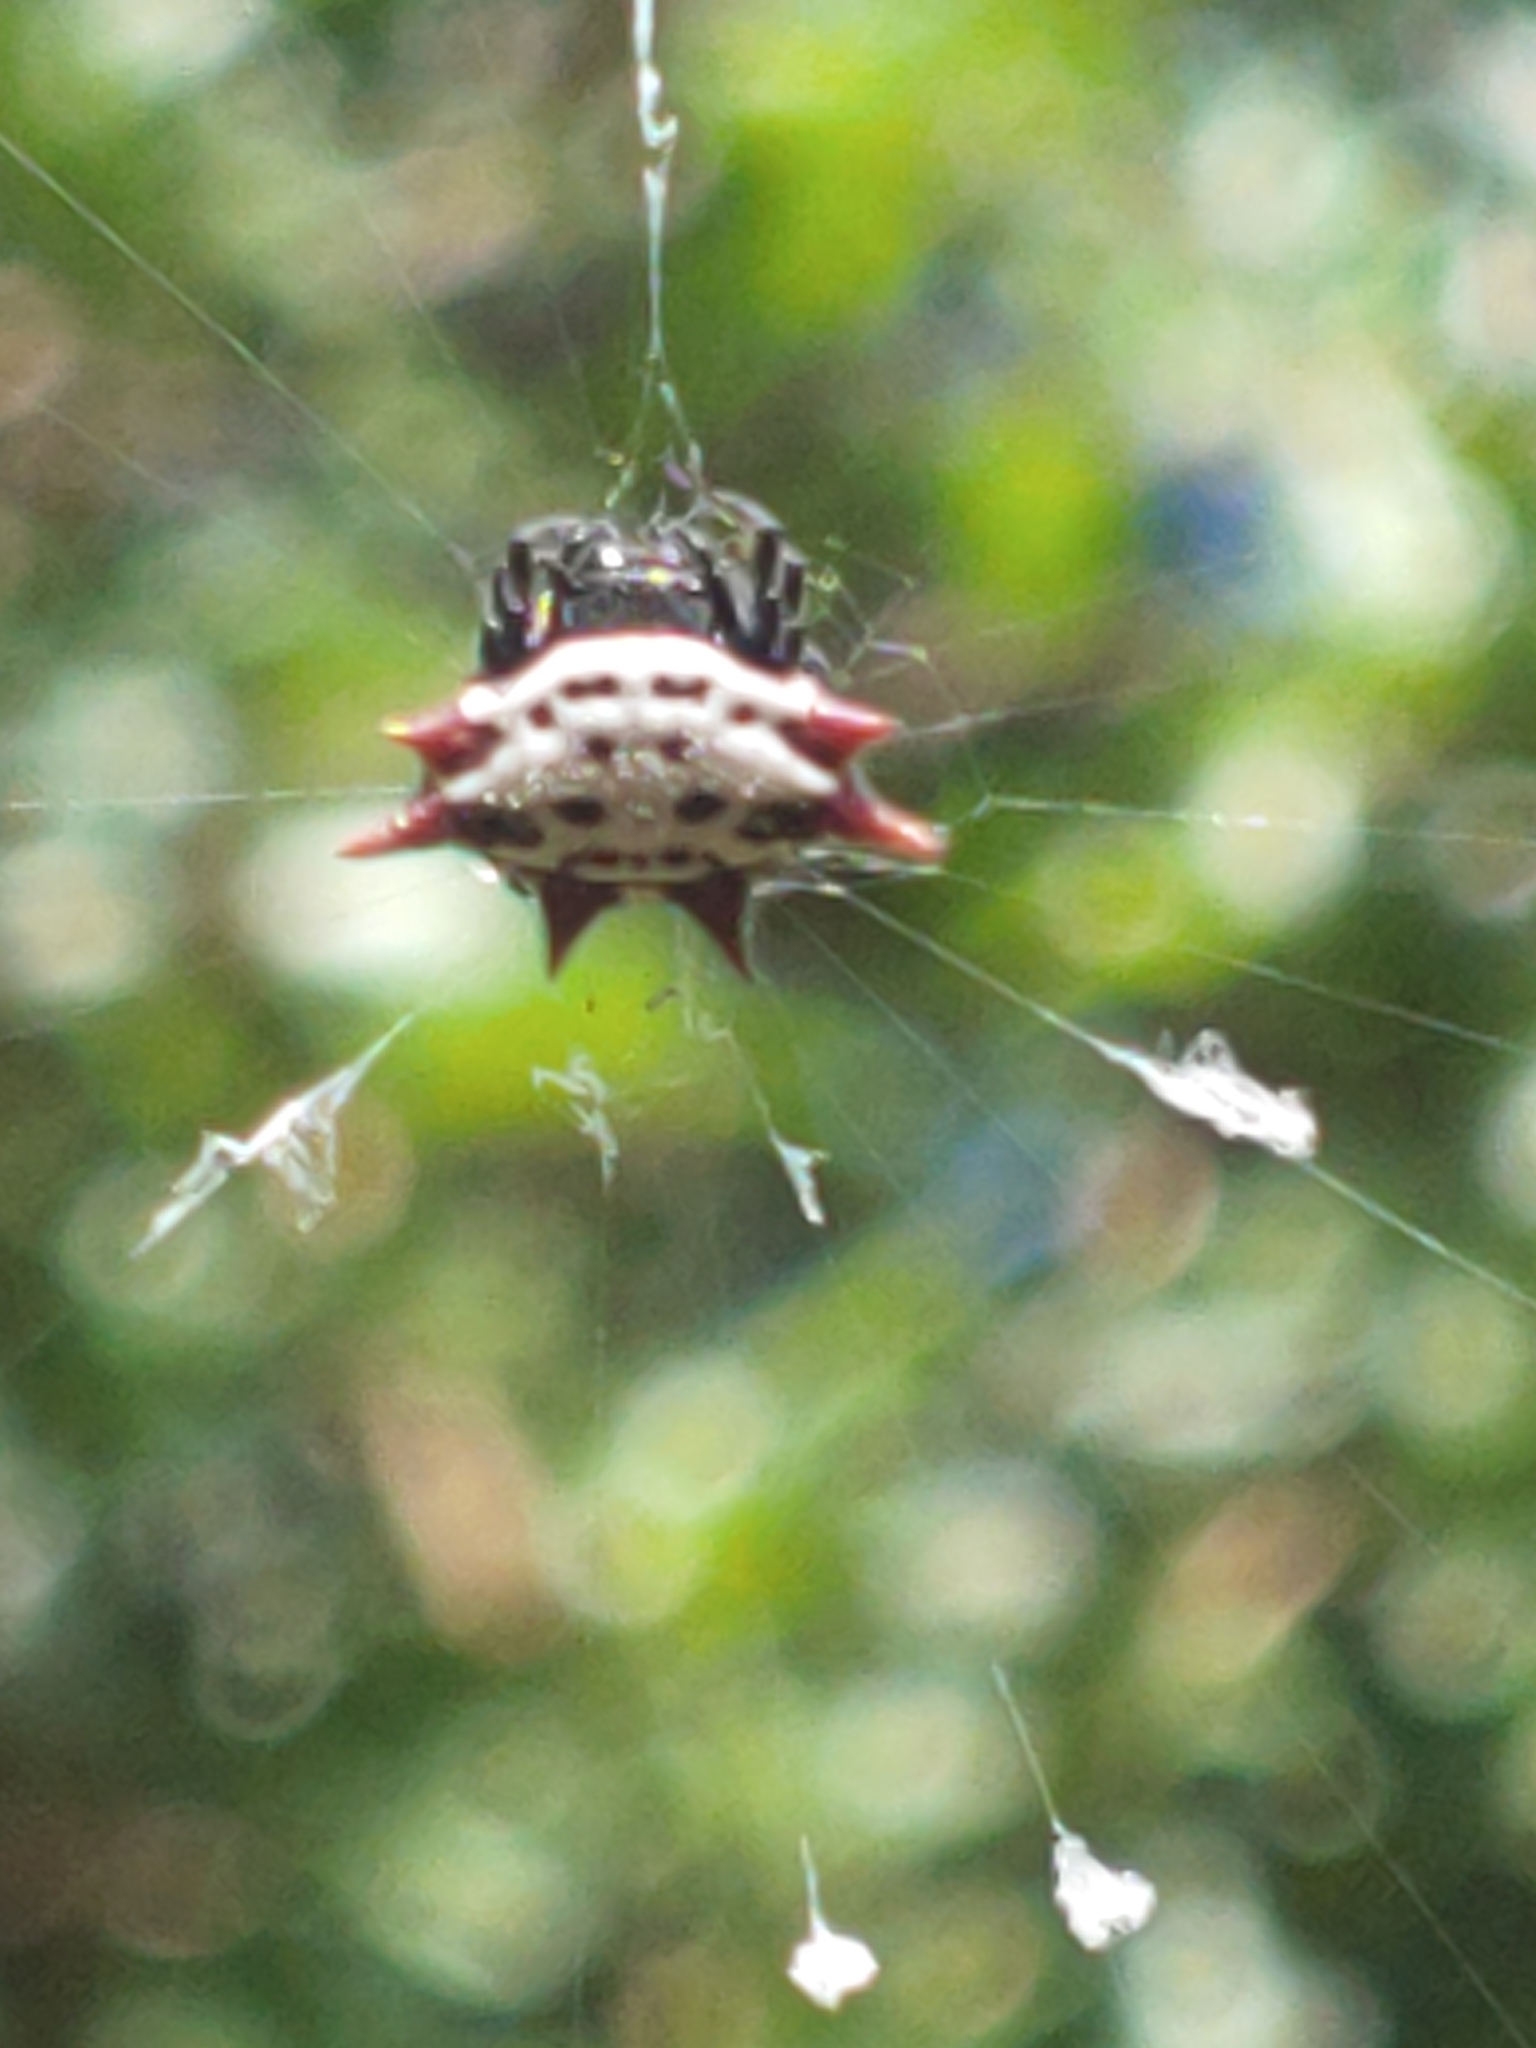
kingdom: Animalia
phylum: Arthropoda
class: Arachnida
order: Araneae
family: Araneidae
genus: Gasteracantha
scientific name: Gasteracantha cancriformis
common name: Orb weavers
